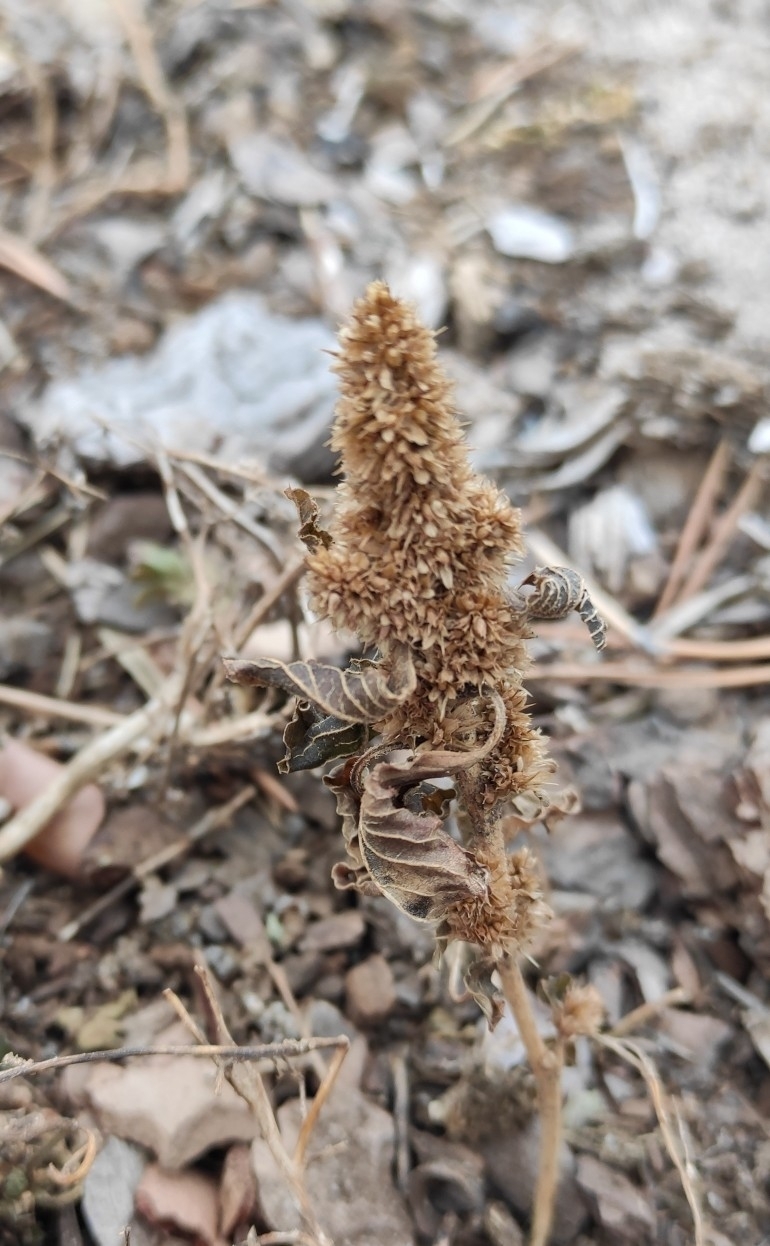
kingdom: Plantae
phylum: Tracheophyta
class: Magnoliopsida
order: Caryophyllales
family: Amaranthaceae
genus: Amaranthus
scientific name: Amaranthus retroflexus
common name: Redroot amaranth
